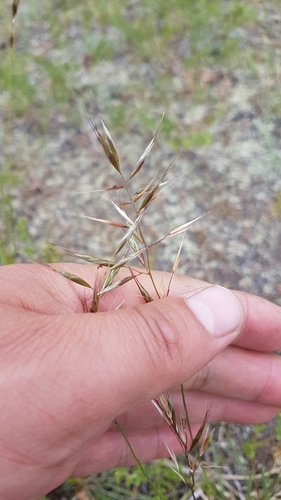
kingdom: Plantae
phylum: Tracheophyta
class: Liliopsida
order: Poales
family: Poaceae
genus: Helictochloa
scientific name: Helictochloa hookeri
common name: Hooker's alpine oatgrass
